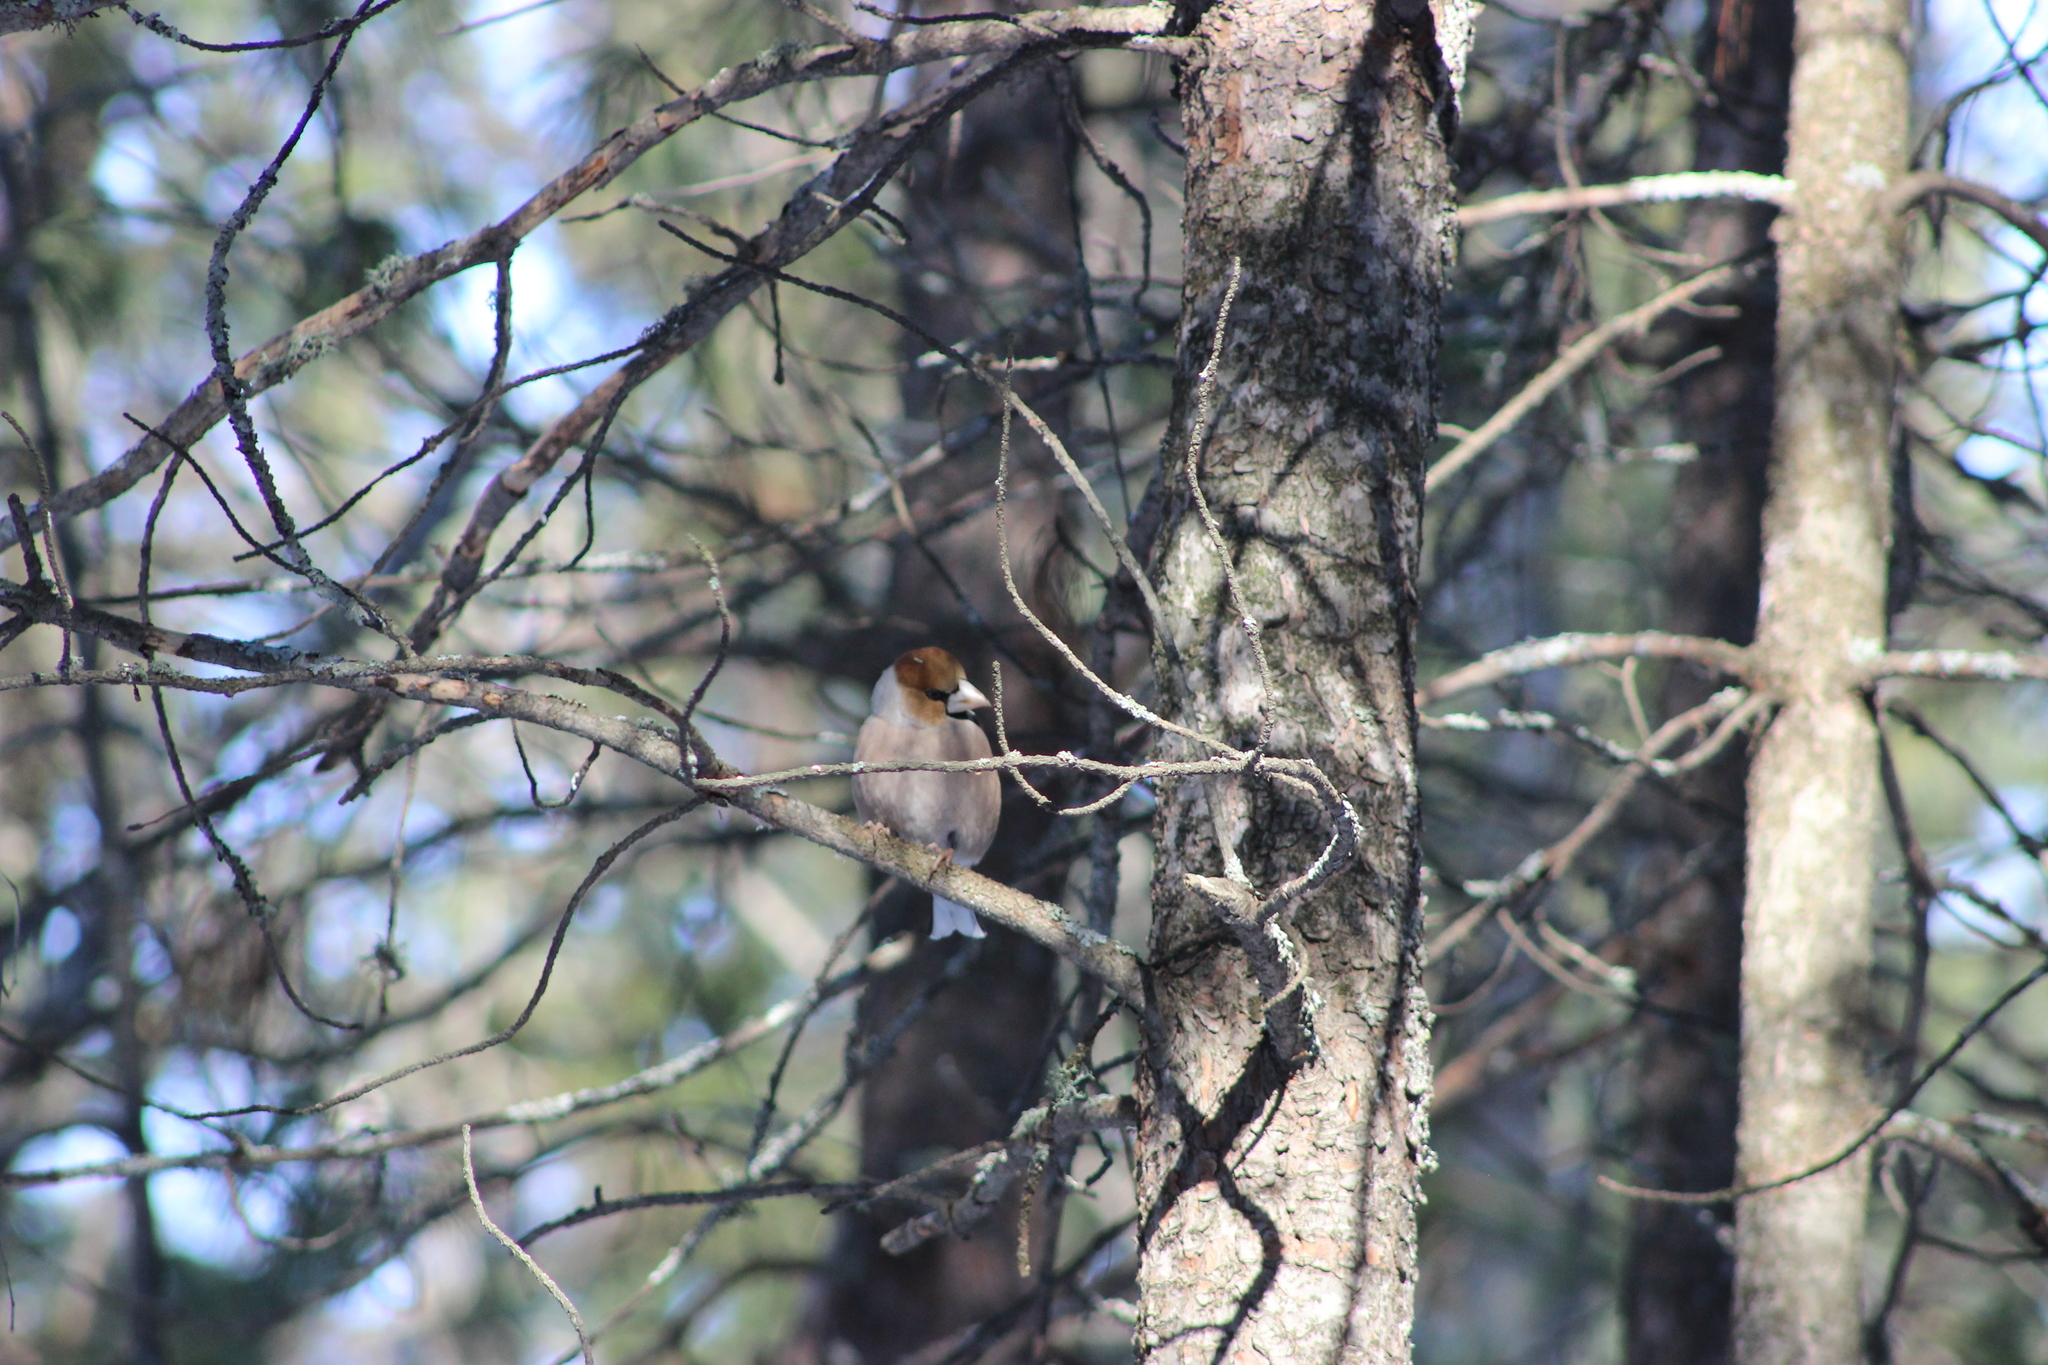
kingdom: Animalia
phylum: Chordata
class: Aves
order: Passeriformes
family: Fringillidae
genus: Coccothraustes
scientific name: Coccothraustes coccothraustes
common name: Hawfinch
